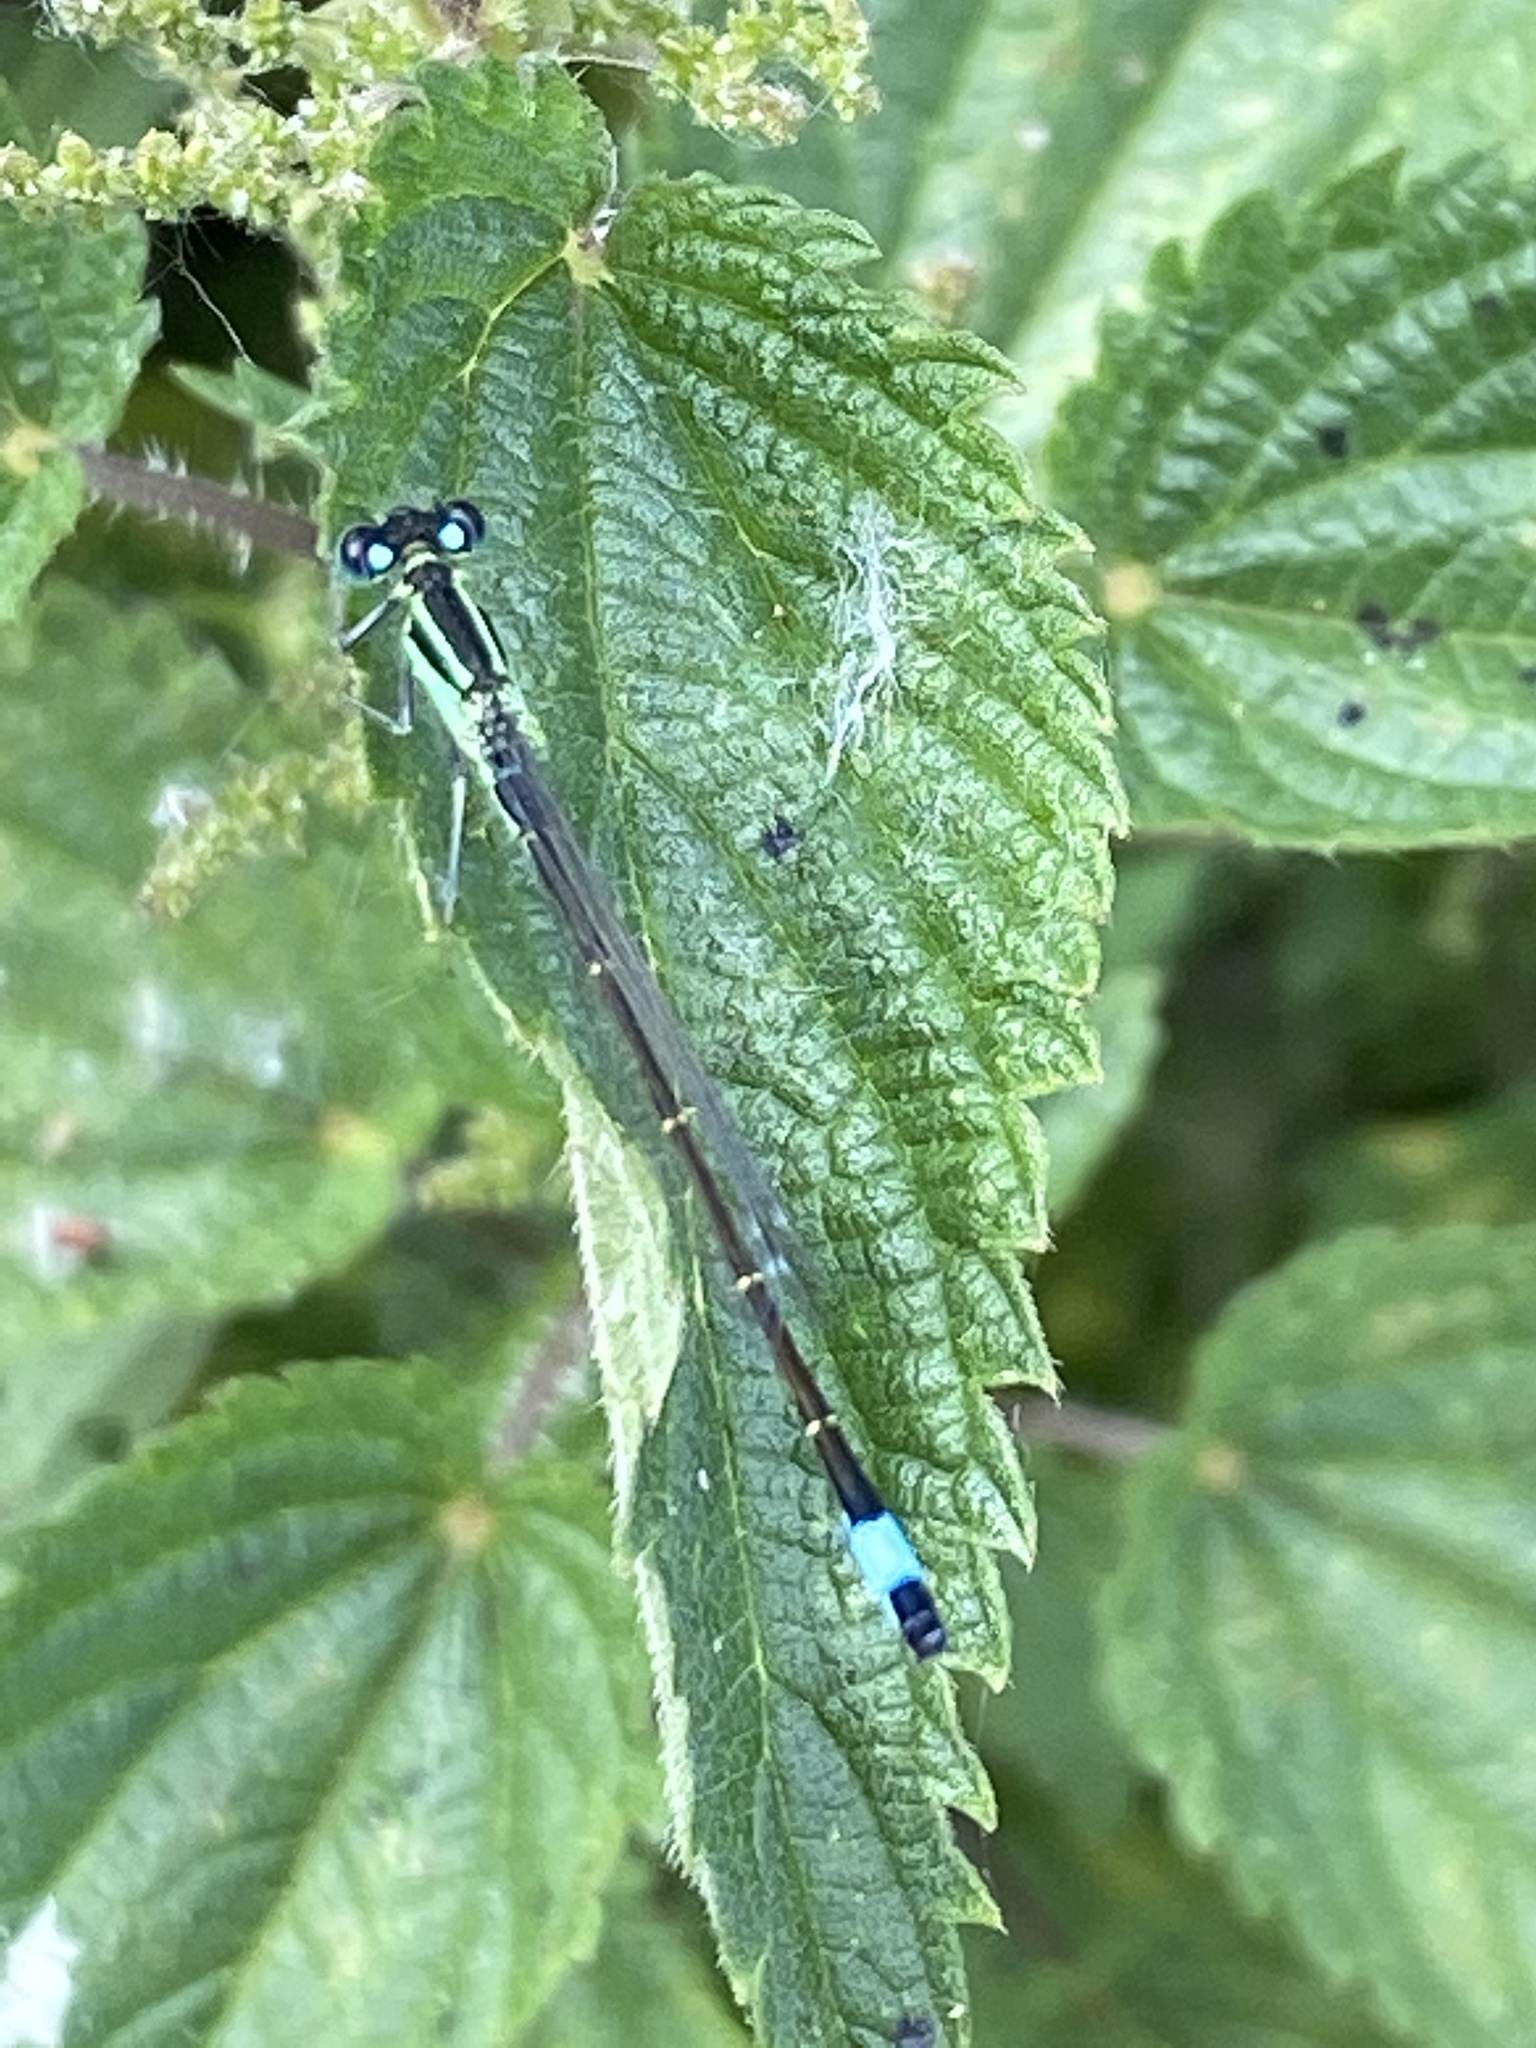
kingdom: Animalia
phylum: Arthropoda
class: Insecta
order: Odonata
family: Coenagrionidae
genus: Ischnura
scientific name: Ischnura elegans
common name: Blue-tailed damselfly
